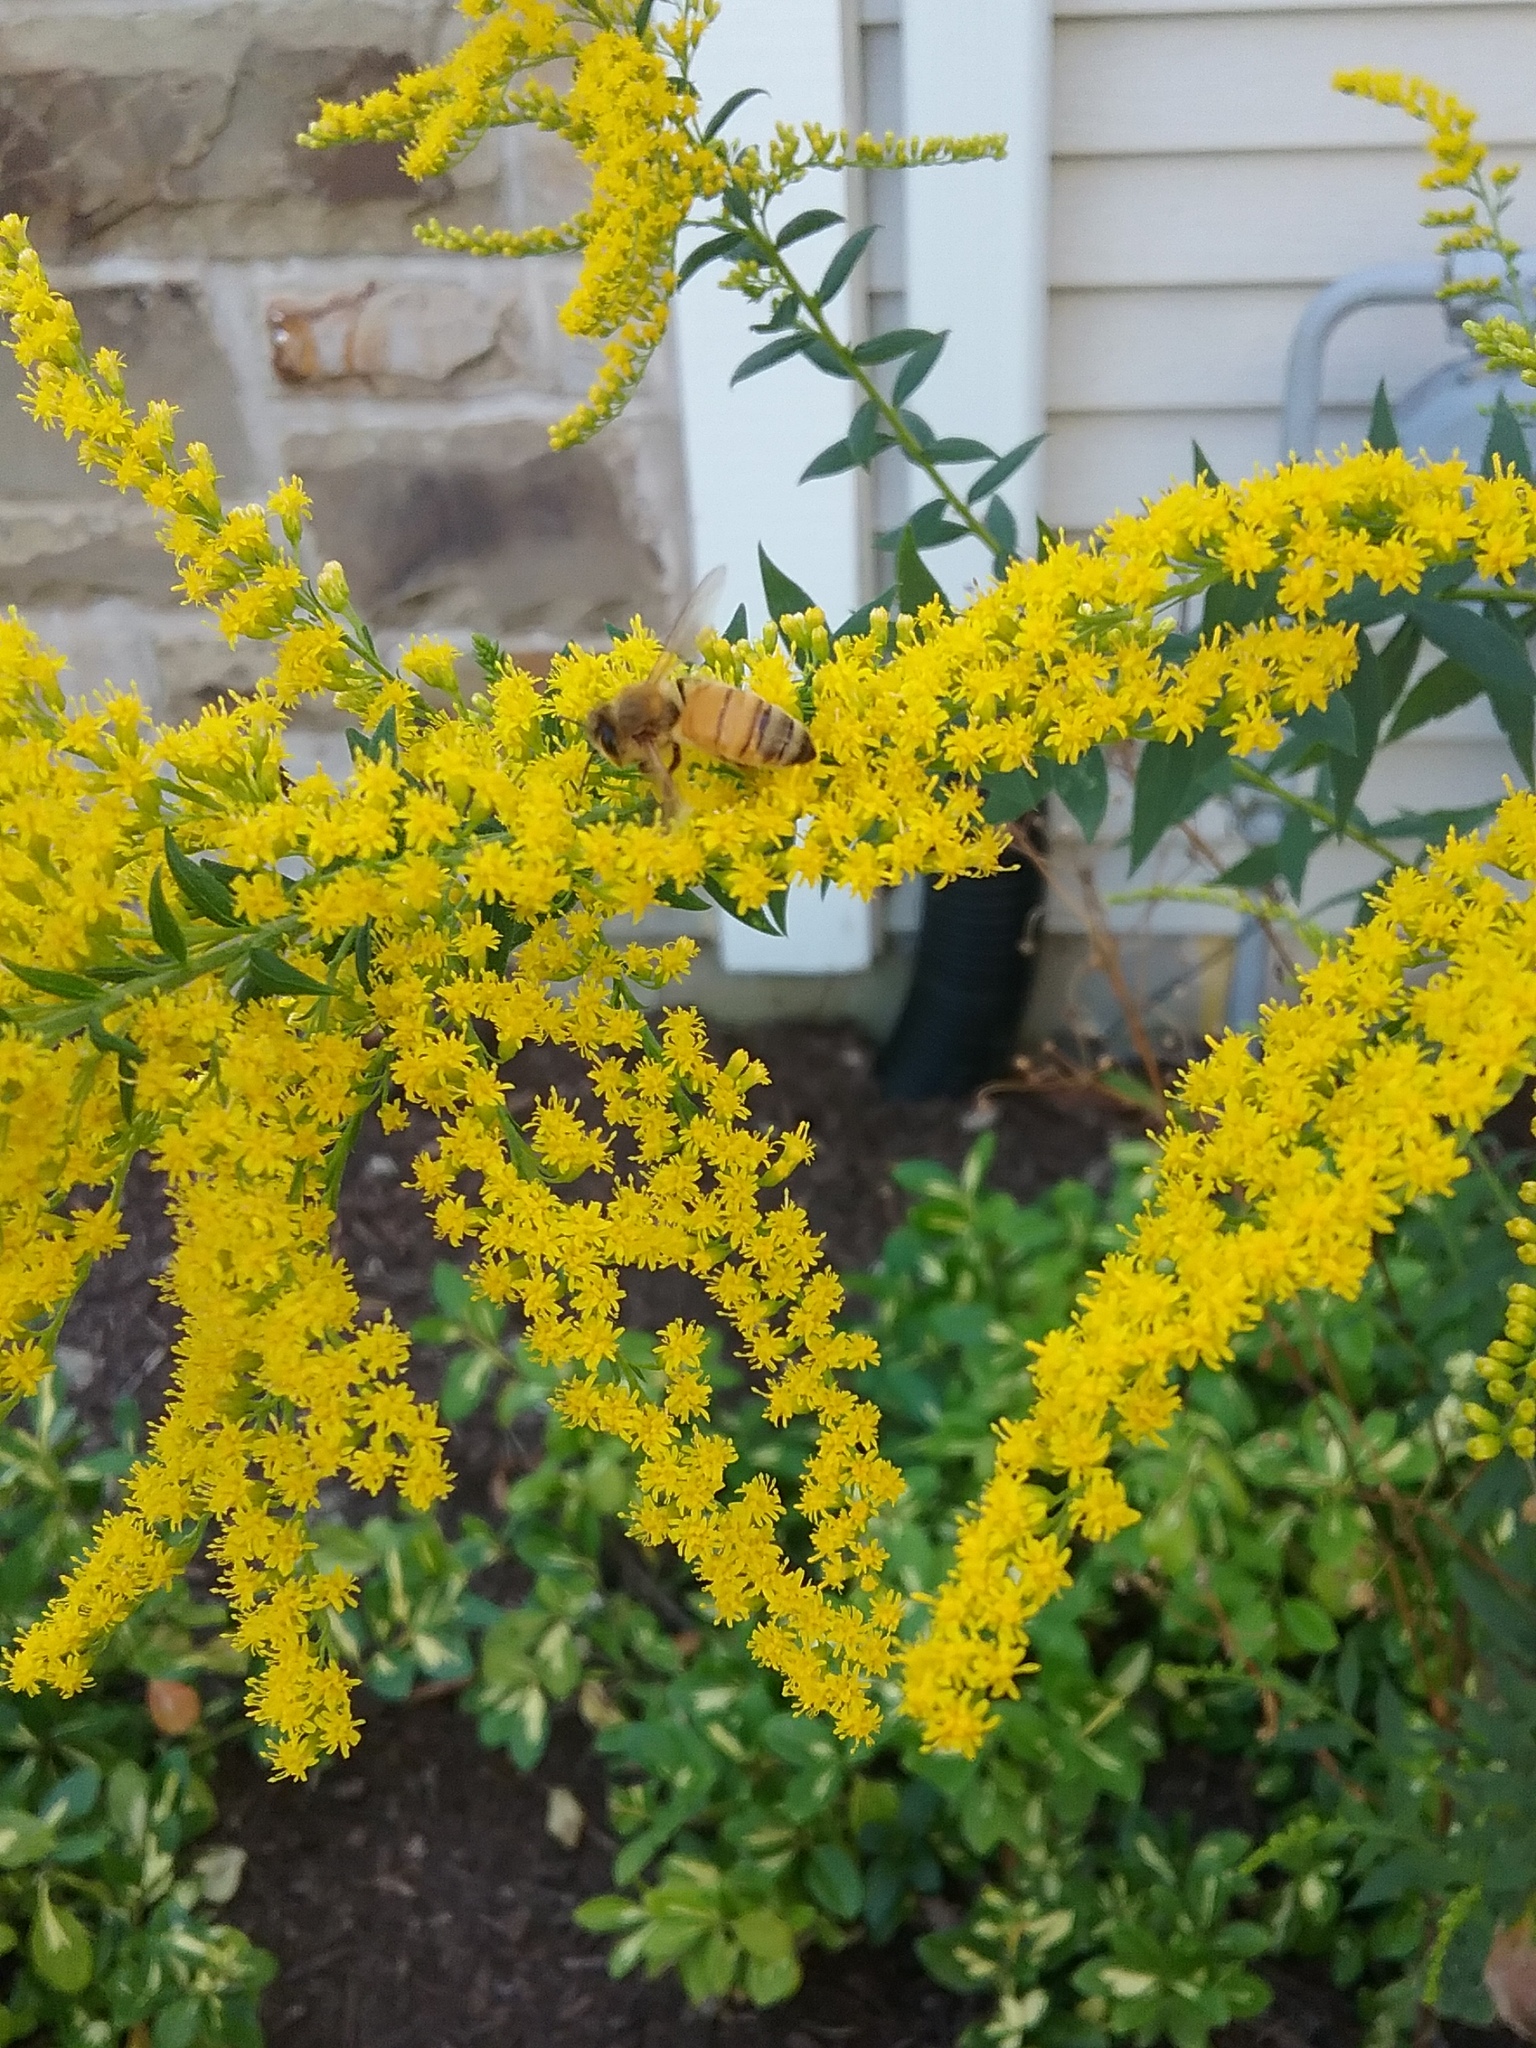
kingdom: Animalia
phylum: Arthropoda
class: Insecta
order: Hymenoptera
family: Apidae
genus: Apis
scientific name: Apis mellifera
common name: Honey bee
